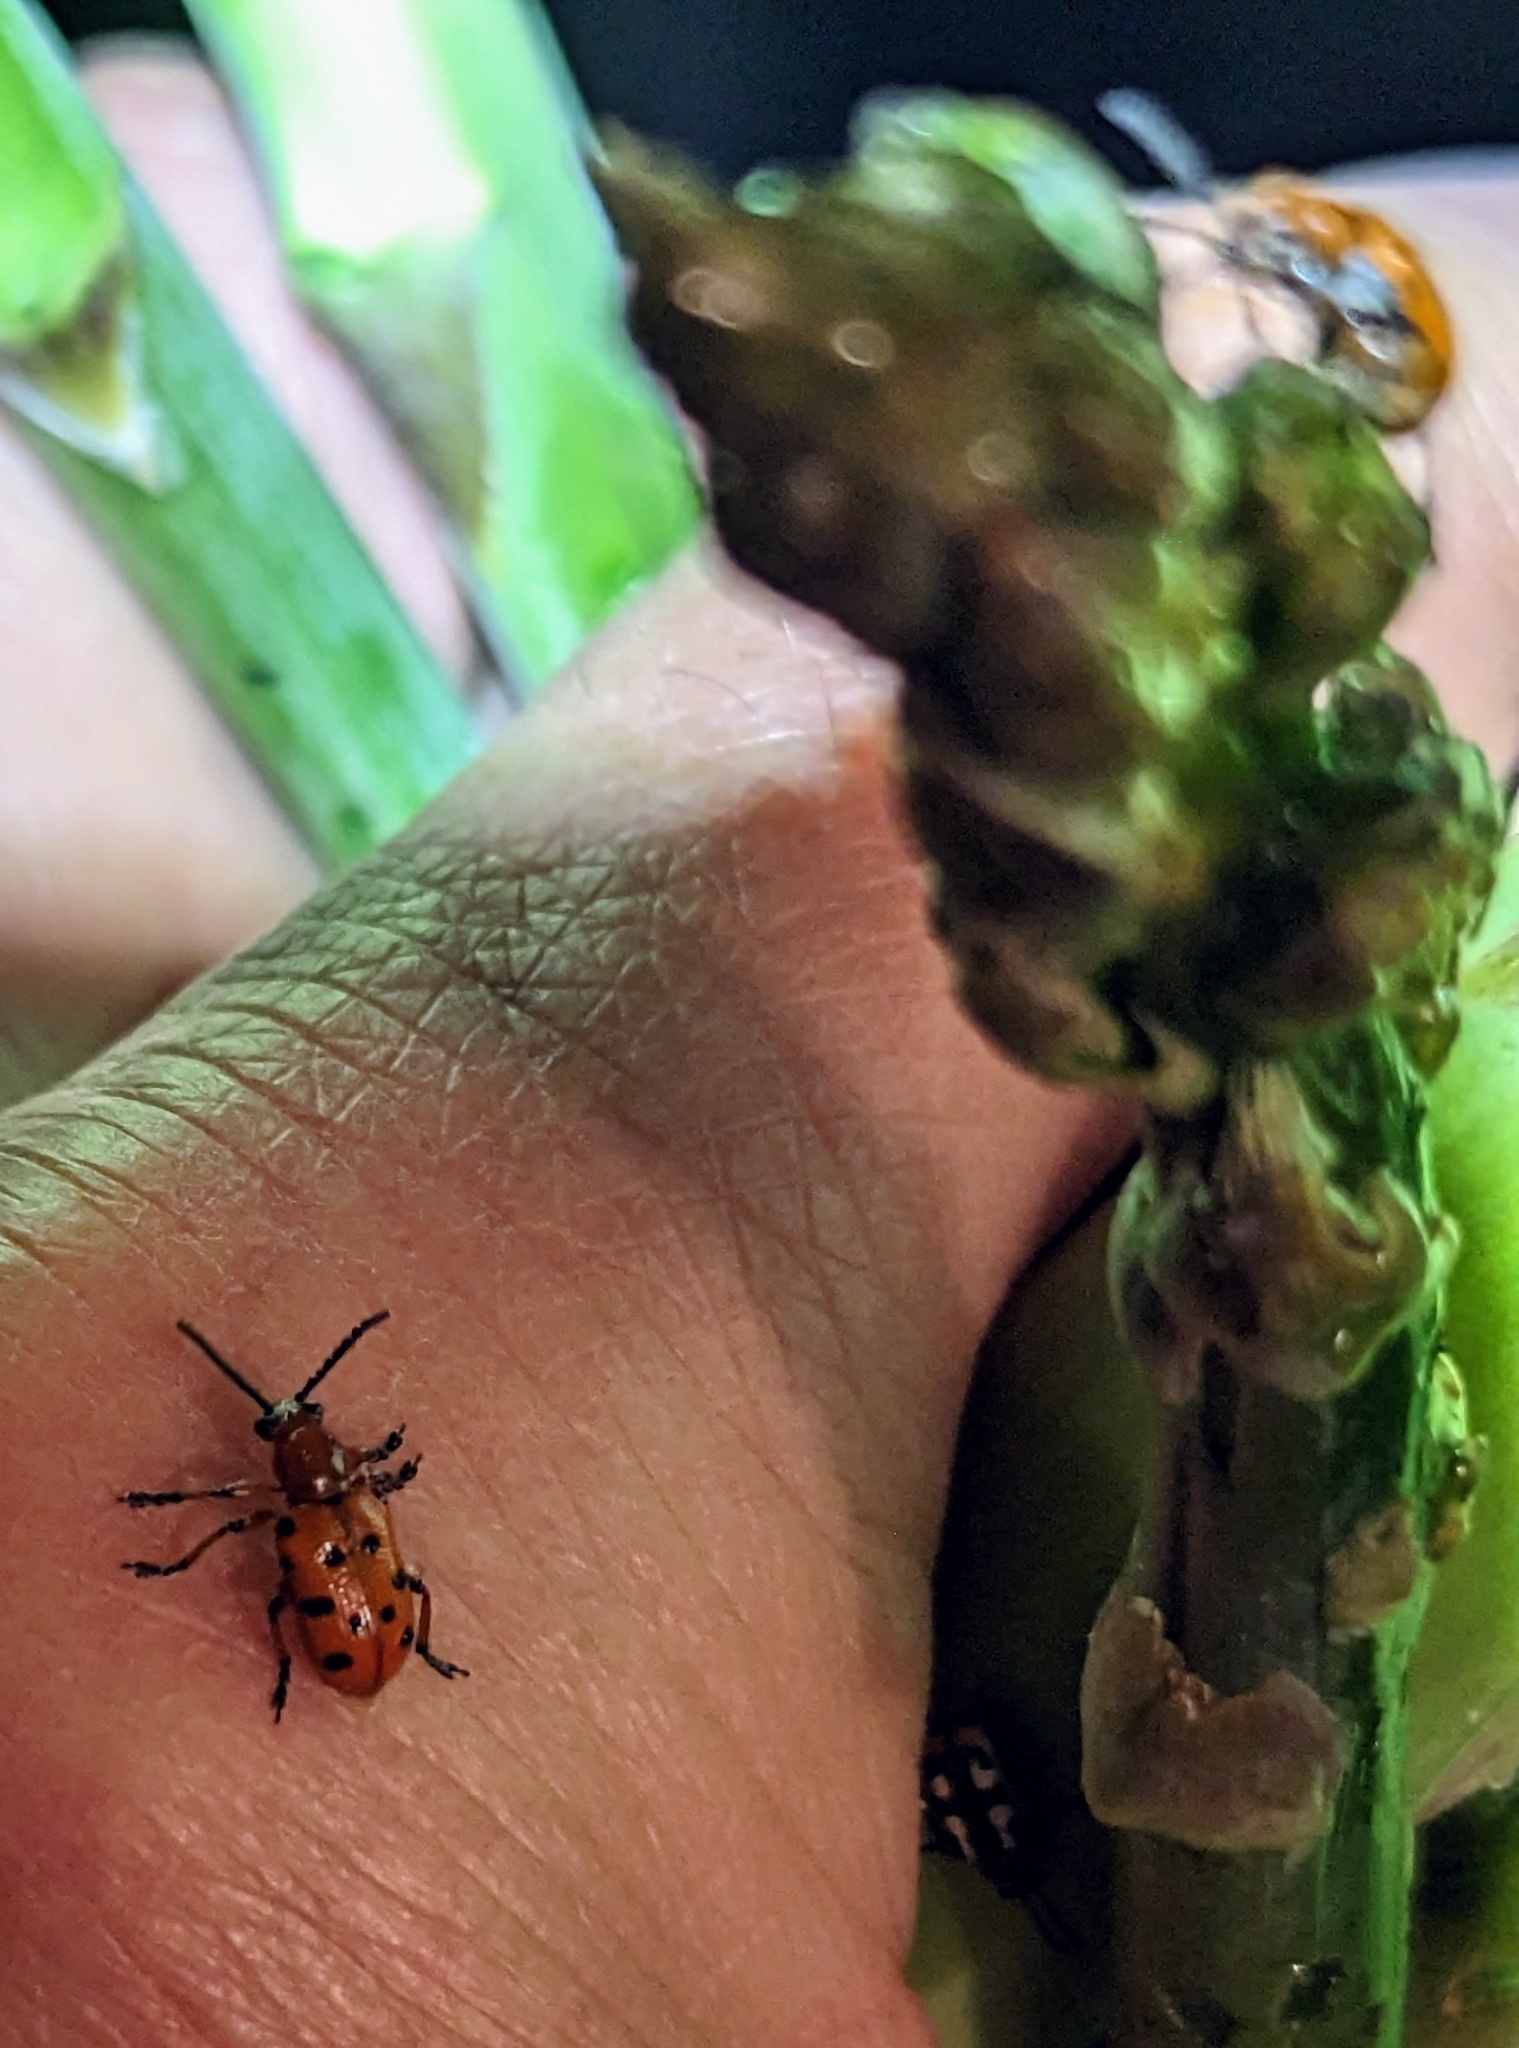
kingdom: Animalia
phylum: Arthropoda
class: Insecta
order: Coleoptera
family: Chrysomelidae
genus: Crioceris
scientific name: Crioceris duodecimpunctata
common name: Twelve-spotted asparagus beetle
